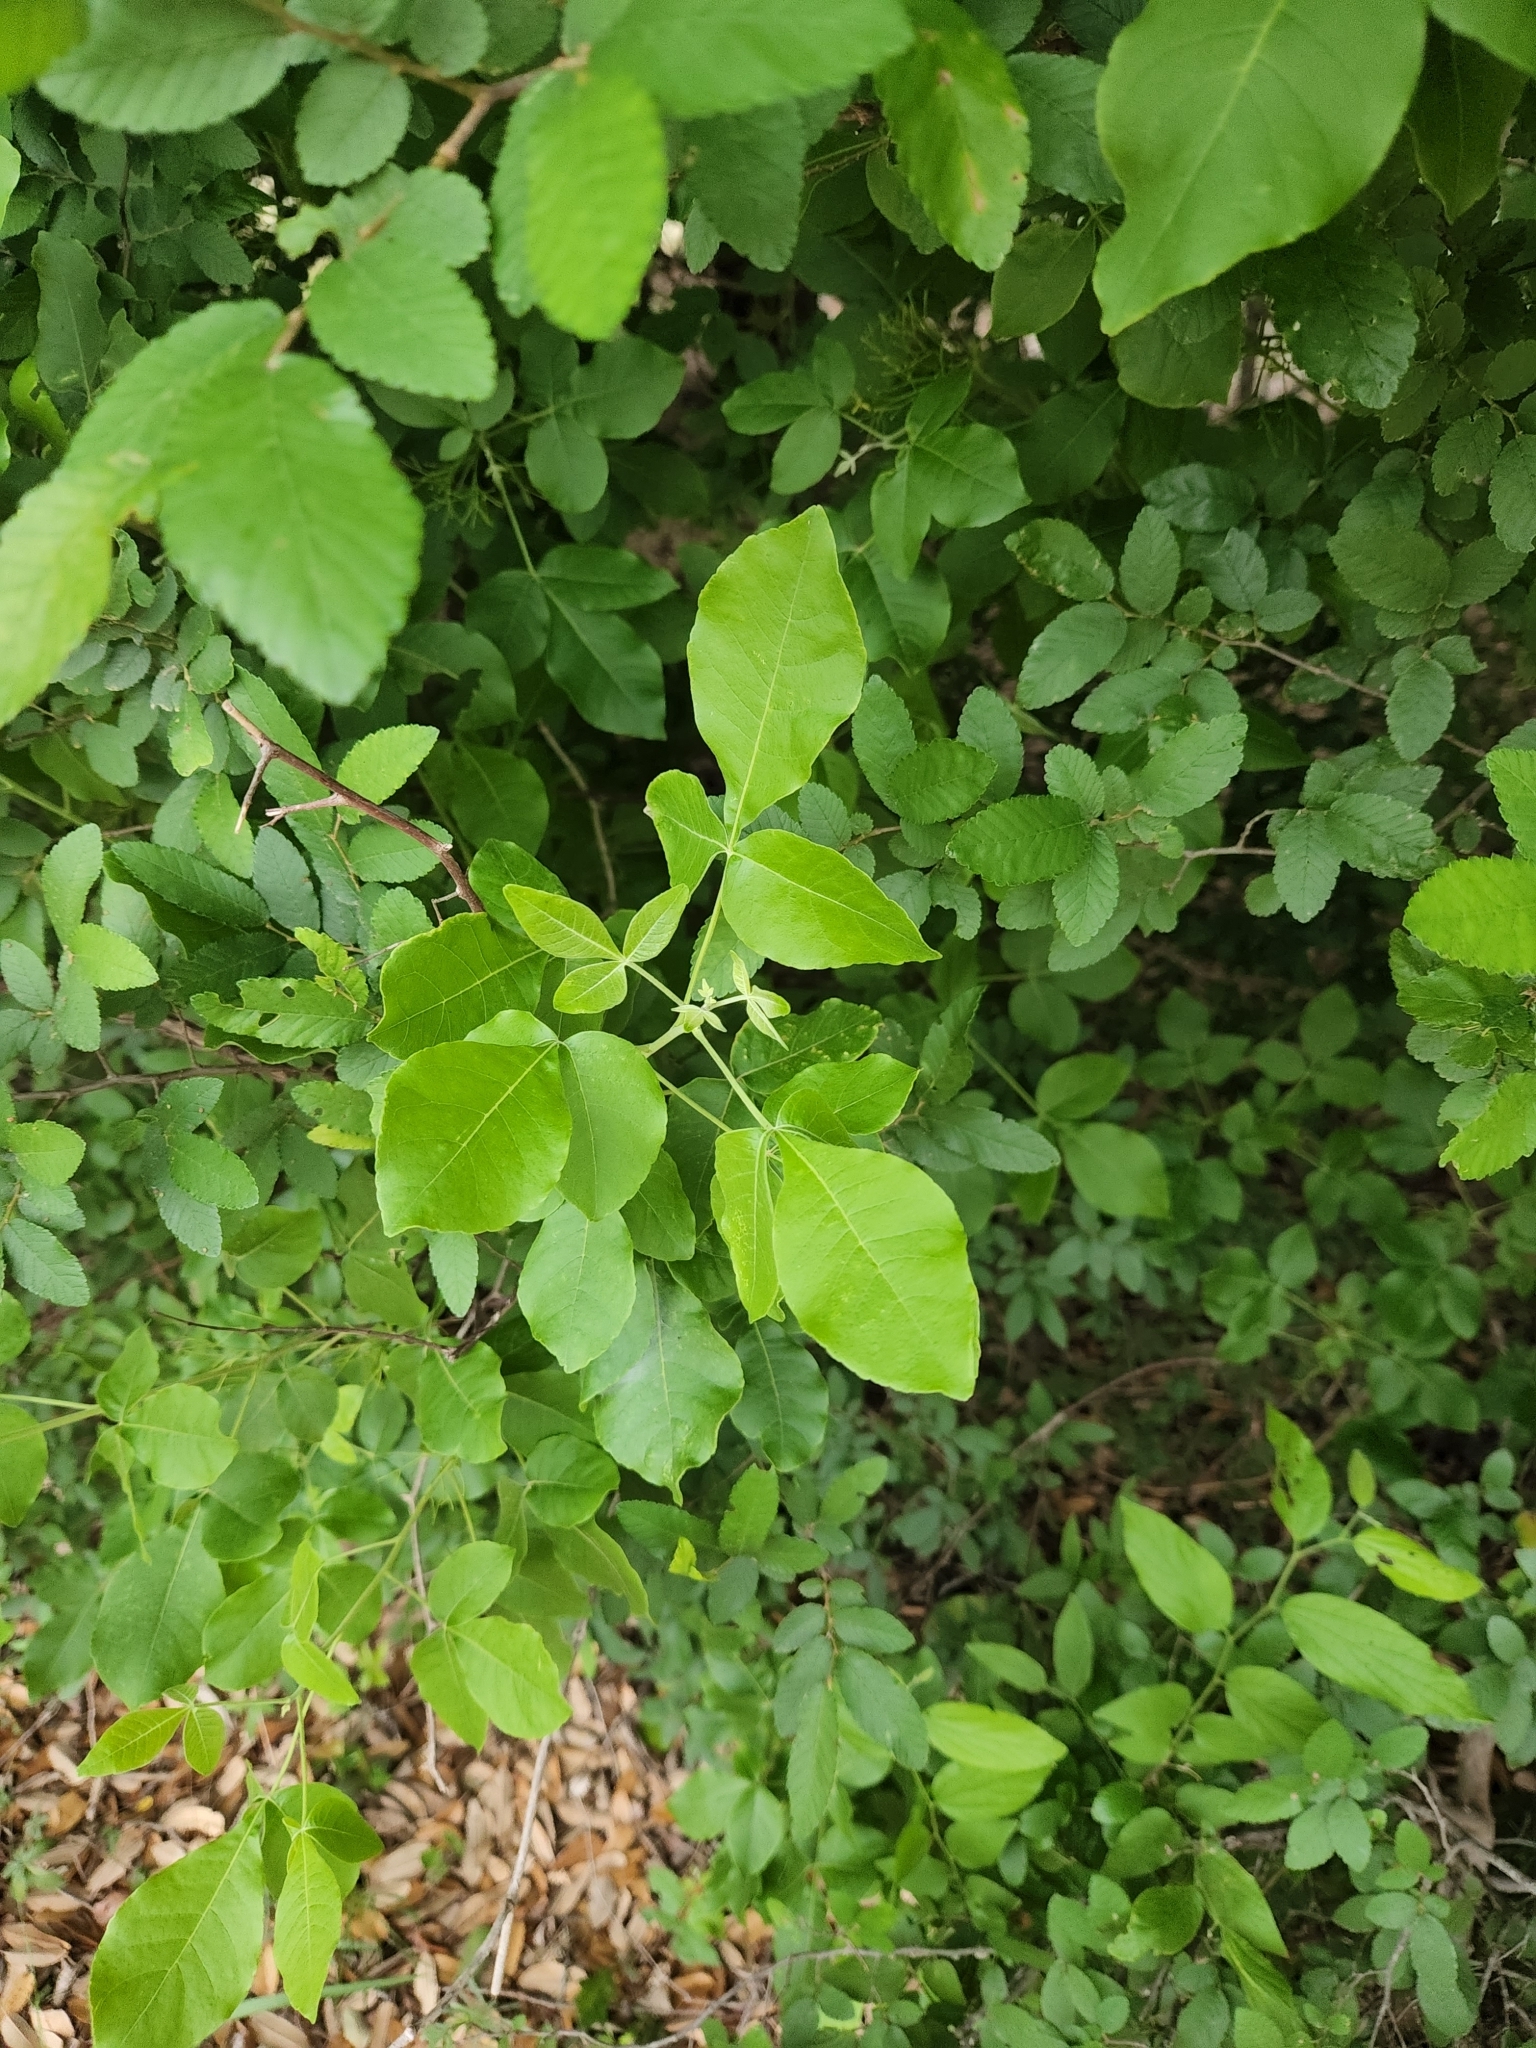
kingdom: Plantae
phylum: Tracheophyta
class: Magnoliopsida
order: Sapindales
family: Rutaceae
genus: Ptelea
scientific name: Ptelea trifoliata
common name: Common hop-tree
